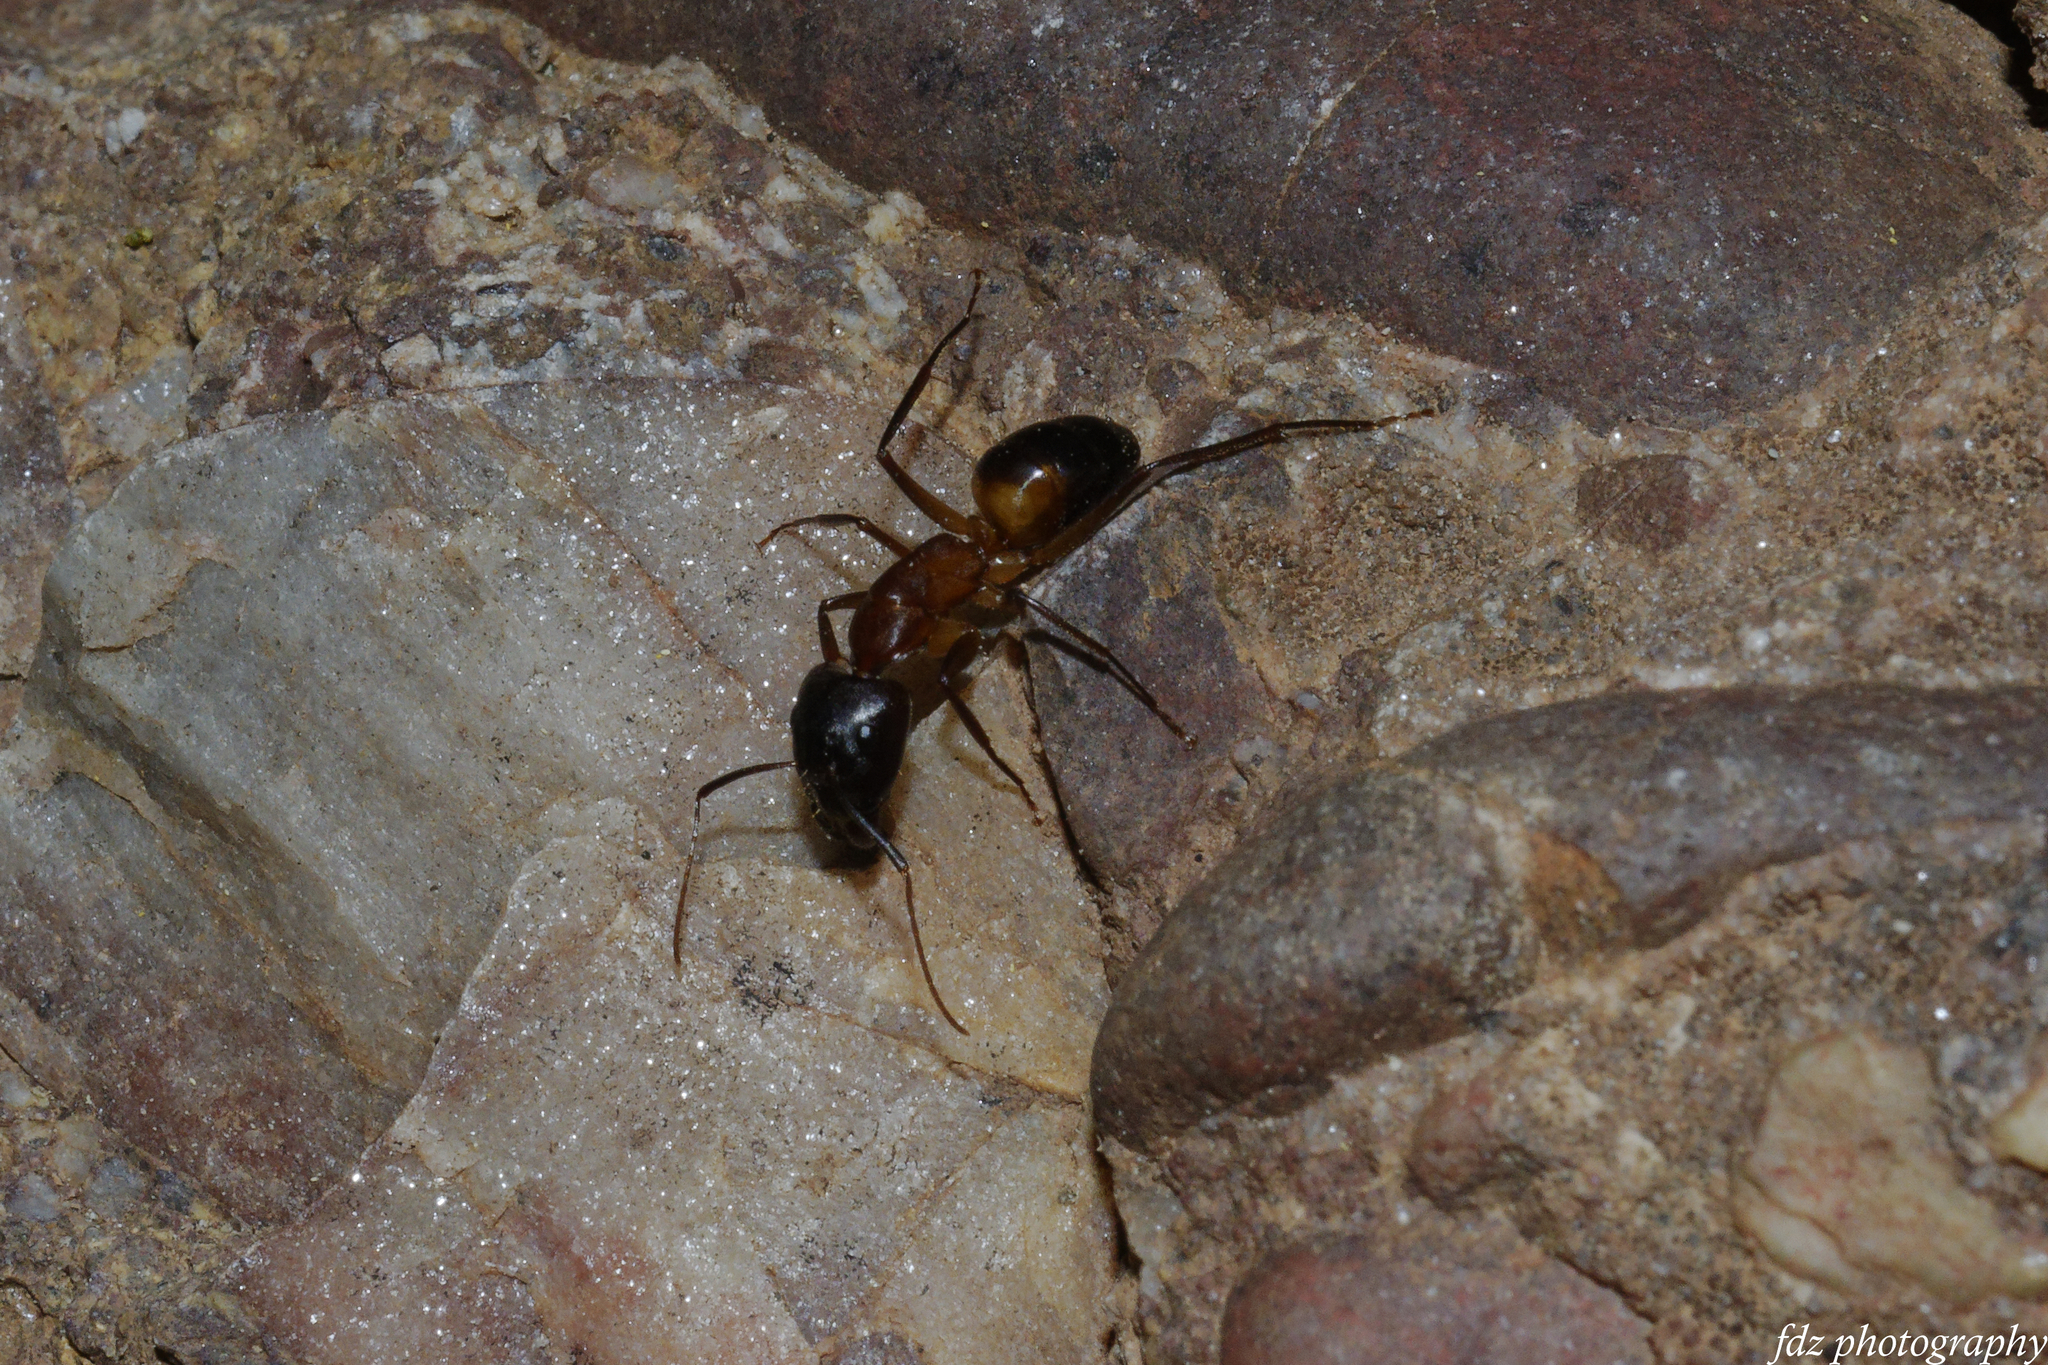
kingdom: Animalia
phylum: Arthropoda
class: Insecta
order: Hymenoptera
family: Formicidae
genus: Camponotus
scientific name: Camponotus pilicornis
